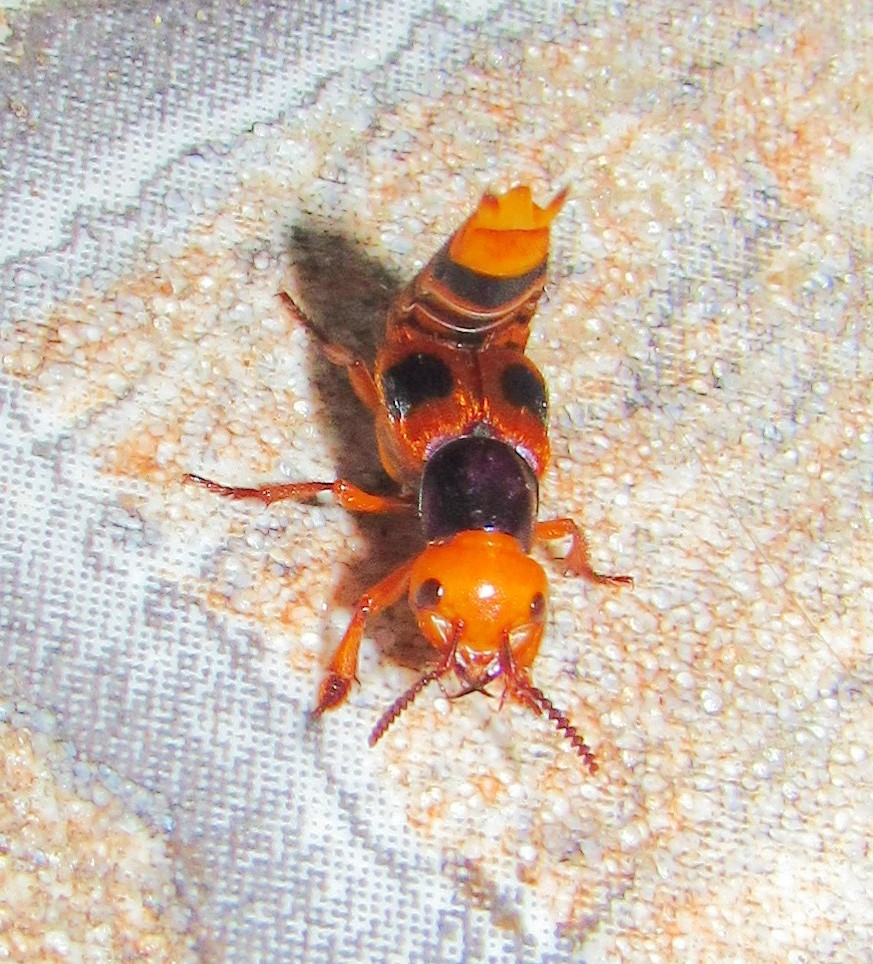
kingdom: Animalia
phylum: Arthropoda
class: Insecta
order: Coleoptera
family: Staphylinidae
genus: Glenus
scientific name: Glenus cyanicollis
